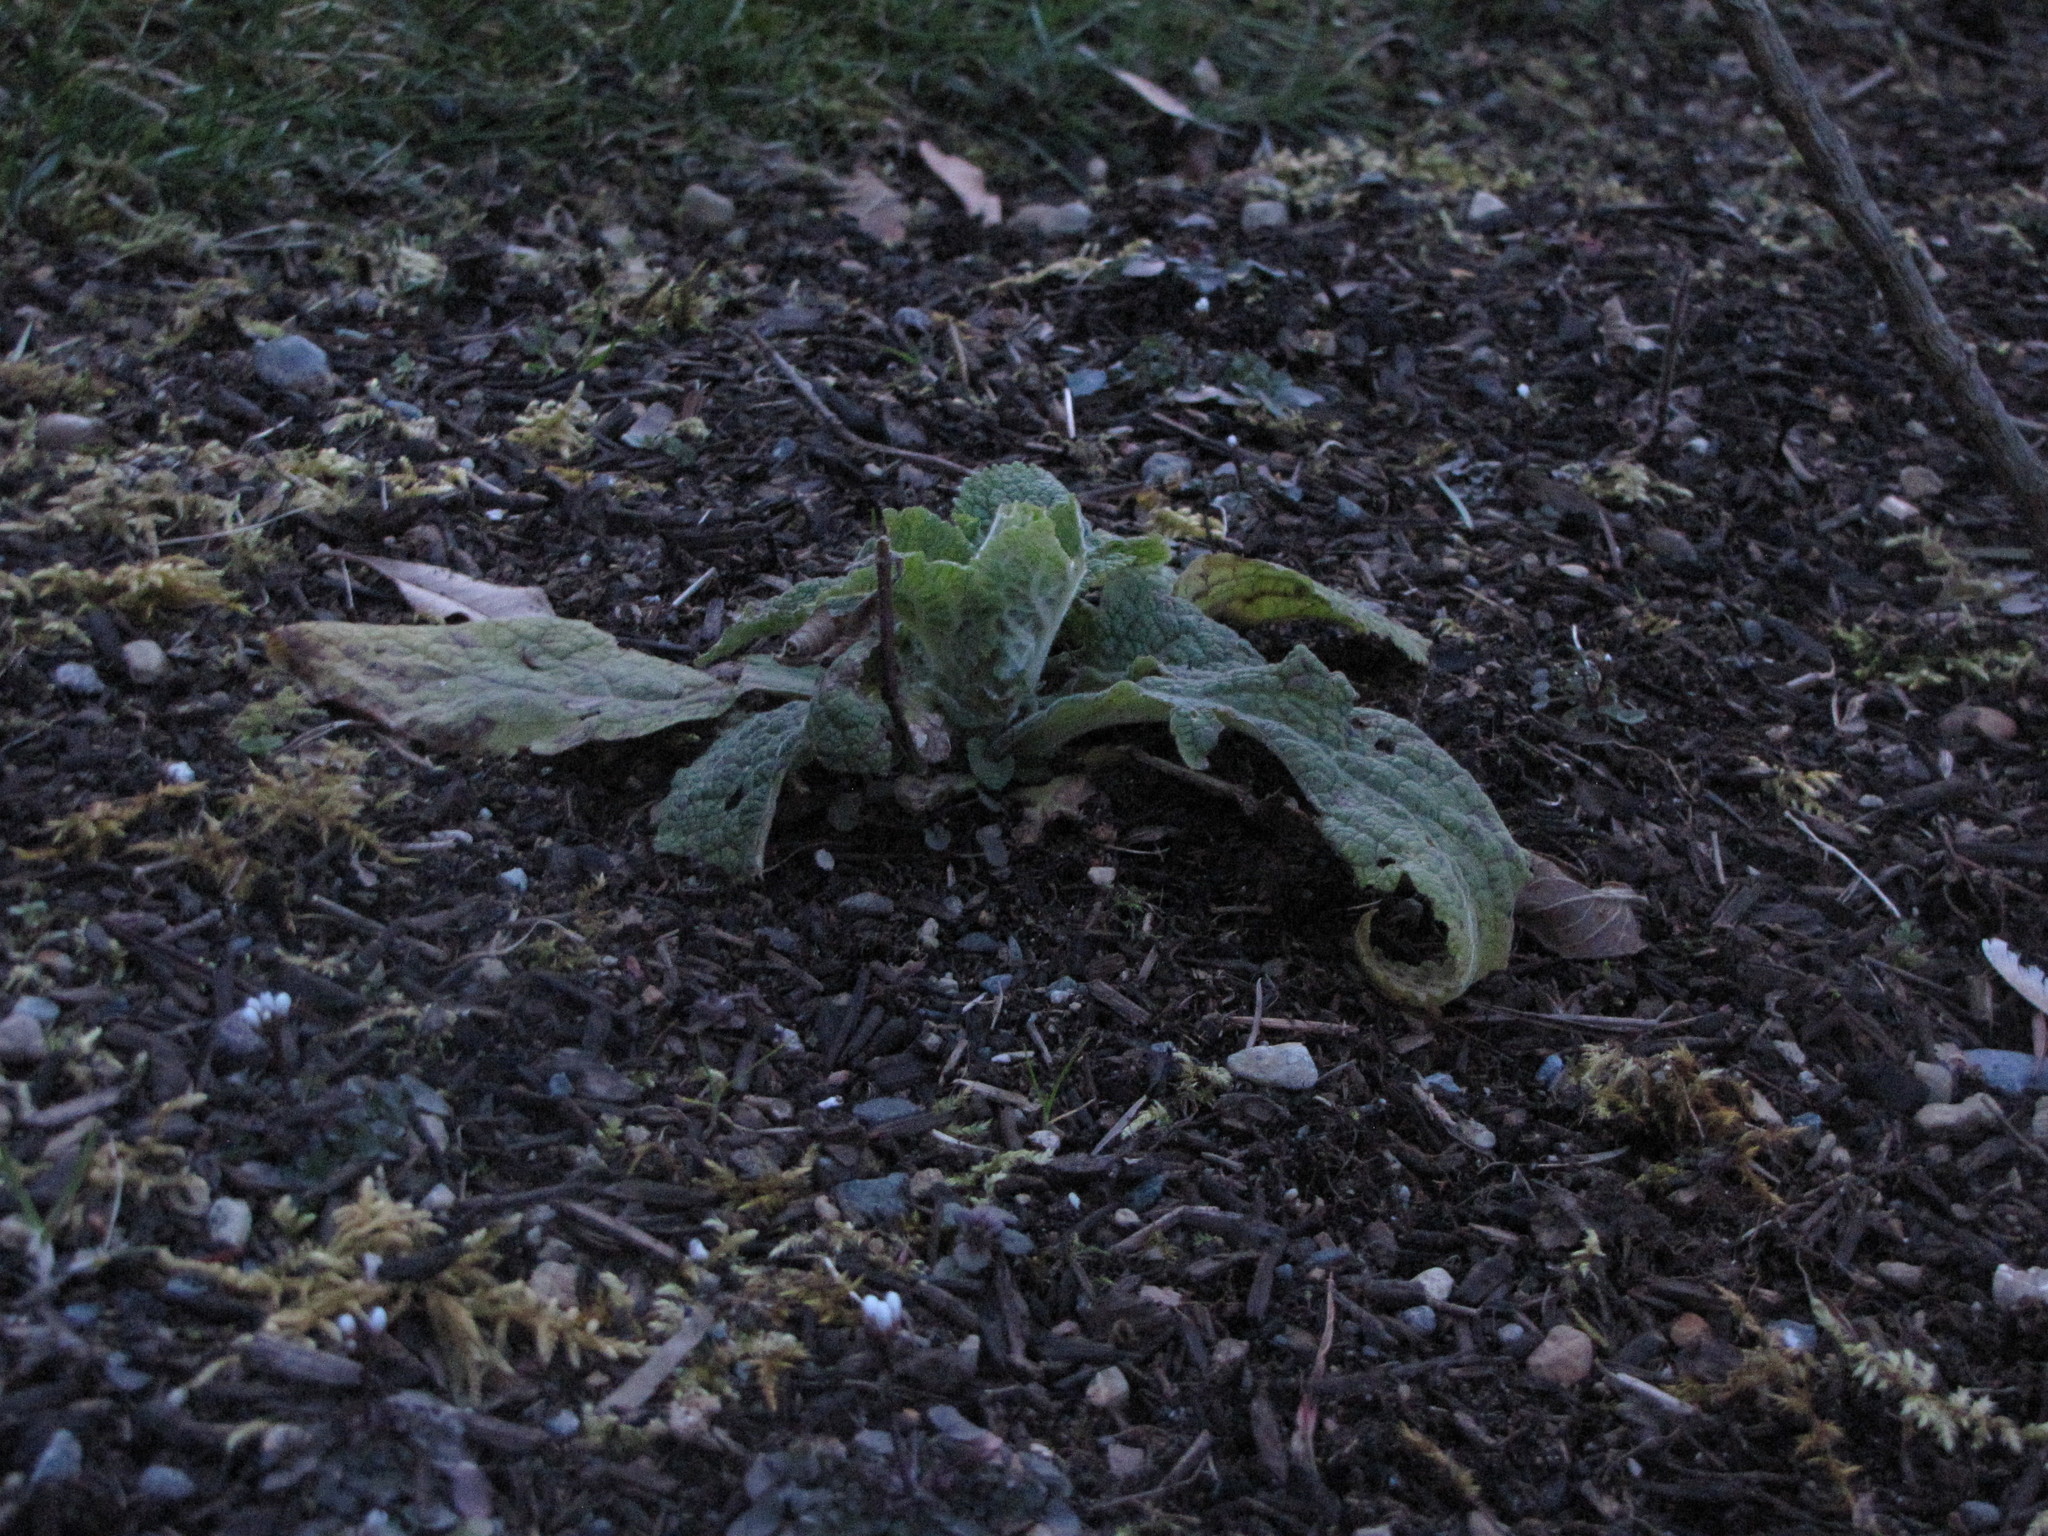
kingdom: Plantae
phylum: Tracheophyta
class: Magnoliopsida
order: Lamiales
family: Plantaginaceae
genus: Digitalis
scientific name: Digitalis purpurea
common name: Foxglove
